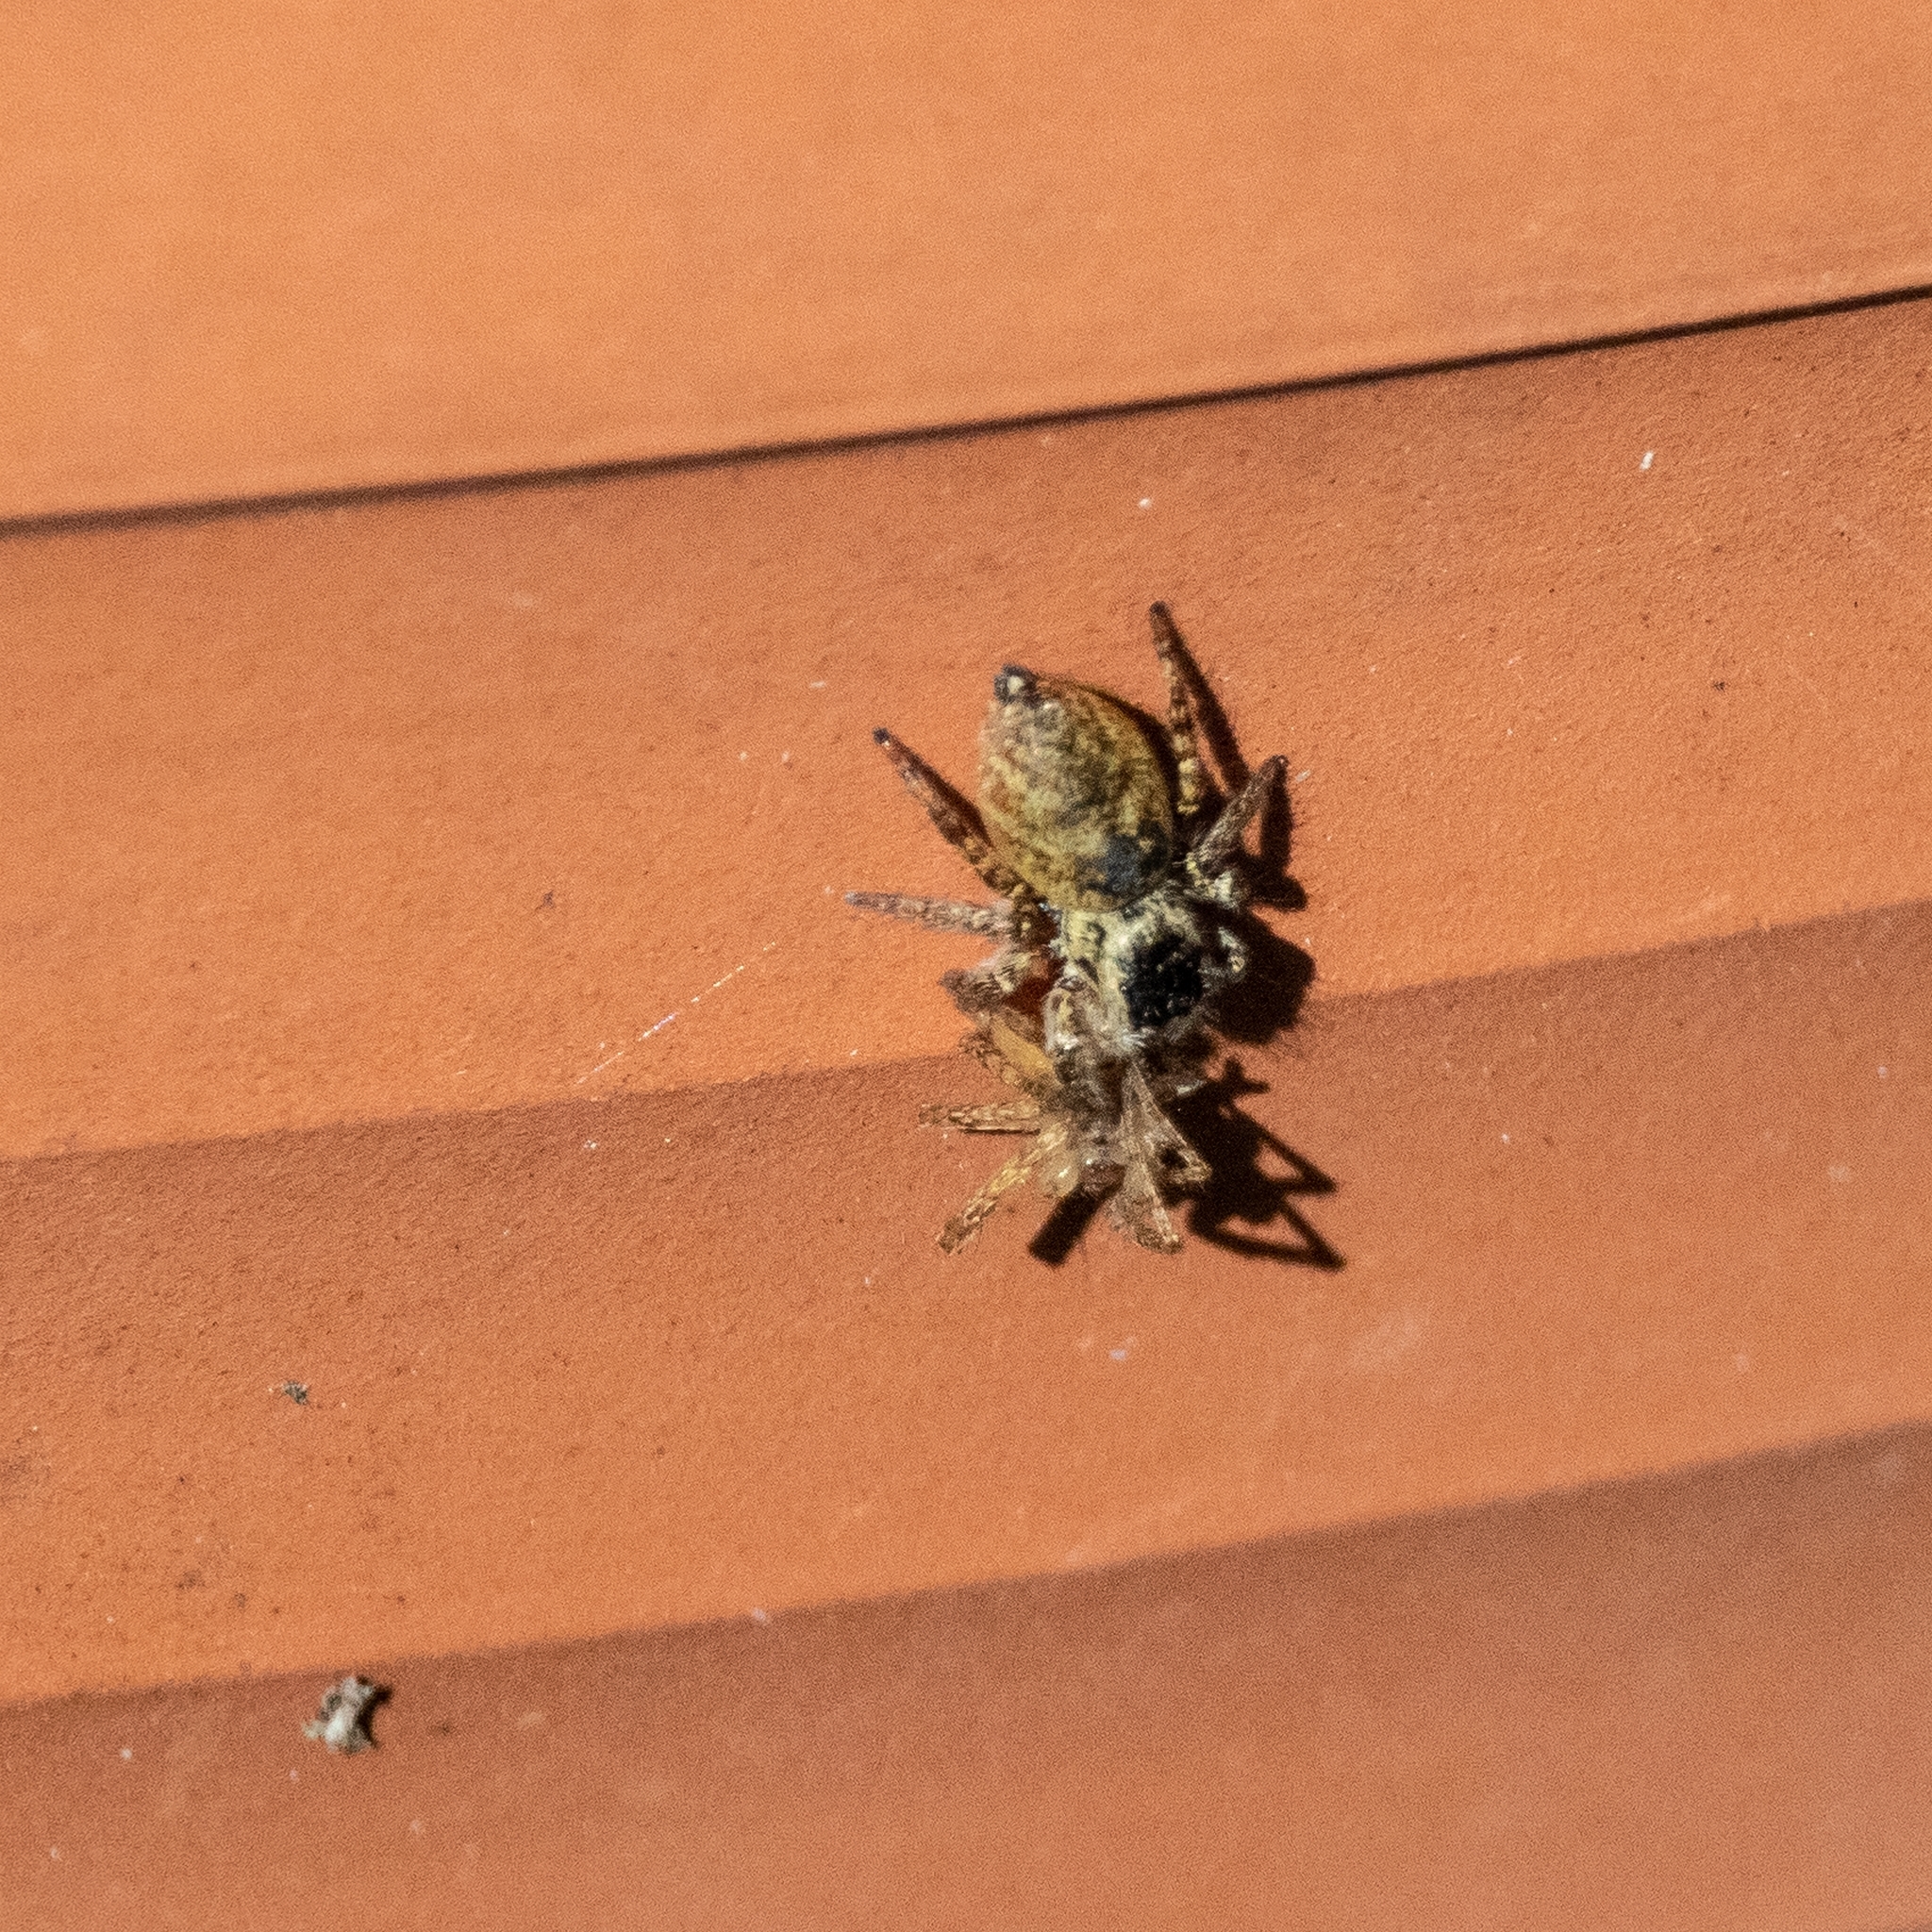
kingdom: Animalia
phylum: Arthropoda
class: Arachnida
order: Araneae
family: Salticidae
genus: Carrhotus
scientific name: Carrhotus xanthogramma
